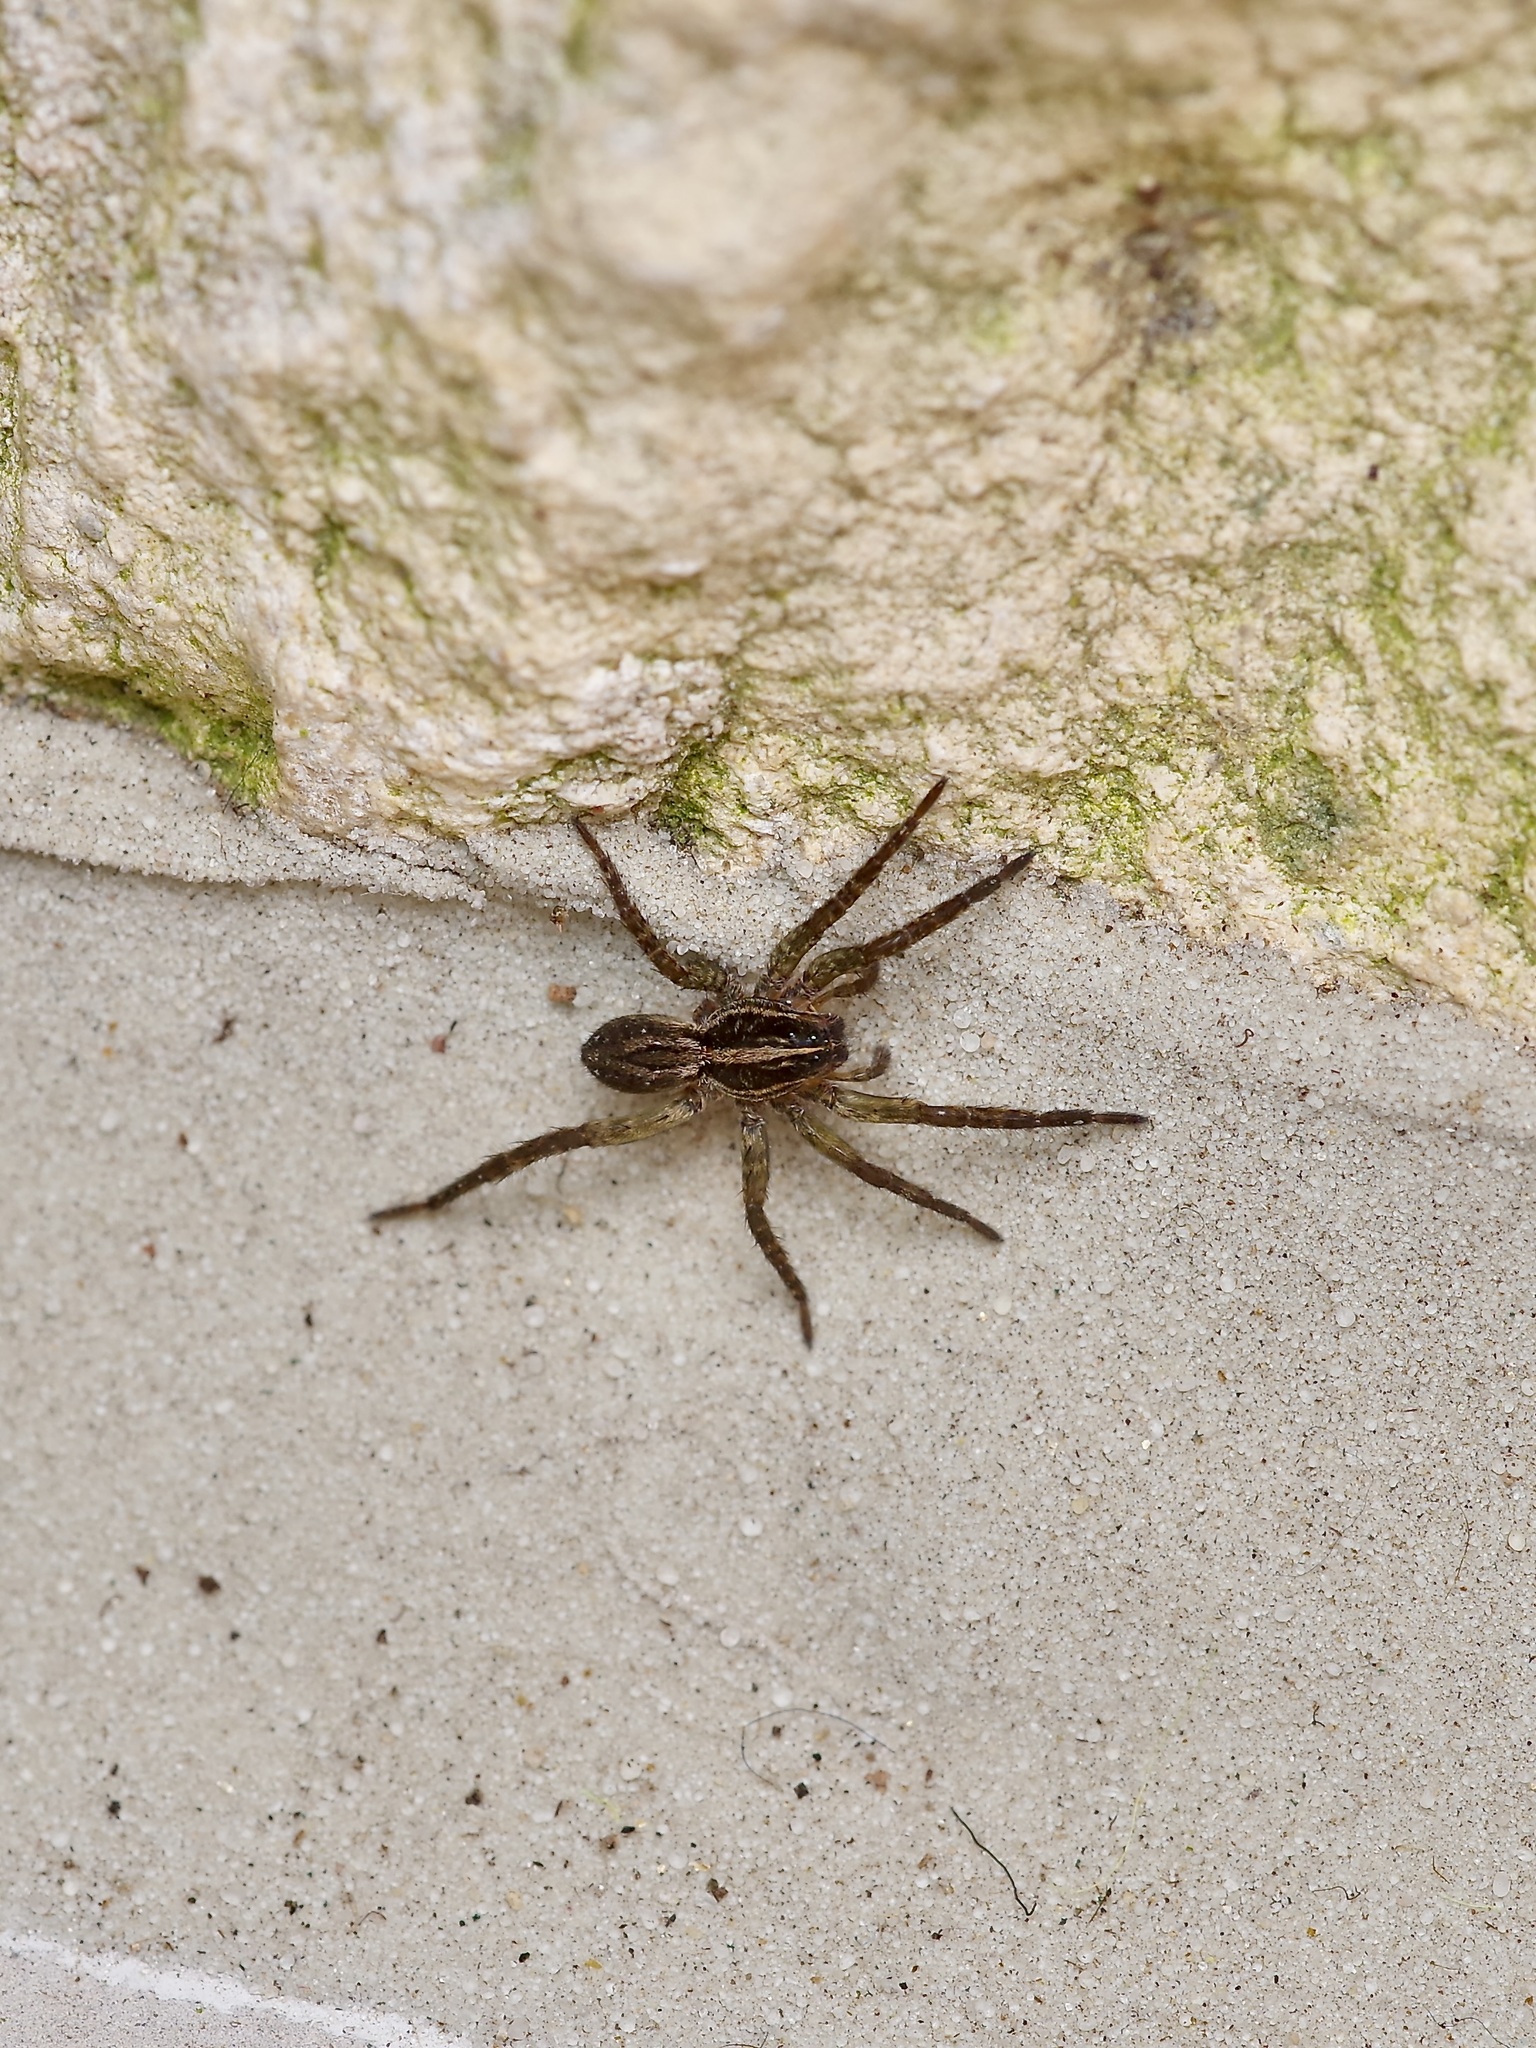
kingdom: Animalia
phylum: Arthropoda
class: Arachnida
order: Araneae
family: Lycosidae
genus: Tigrosa
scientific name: Tigrosa annexa
